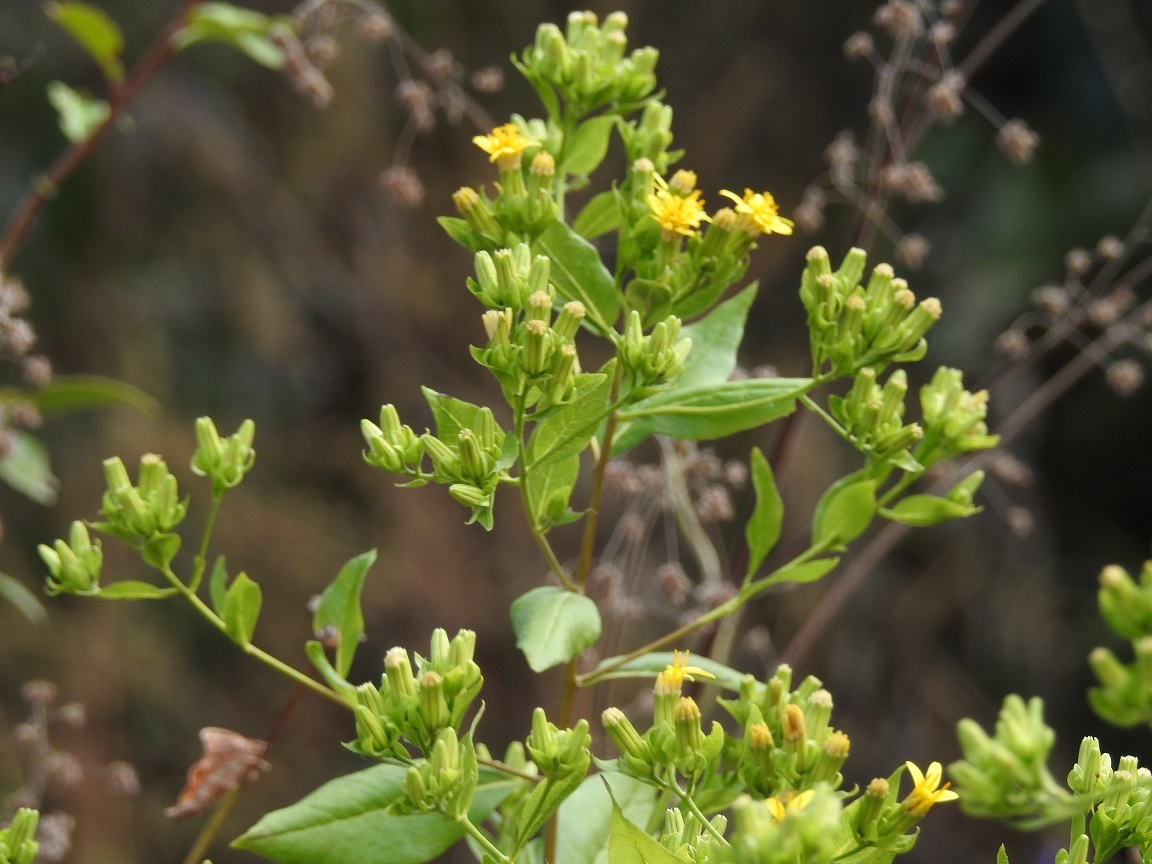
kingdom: Plantae
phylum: Tracheophyta
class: Magnoliopsida
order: Asterales
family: Asteraceae
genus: Trixis
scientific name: Trixis chiapensis
